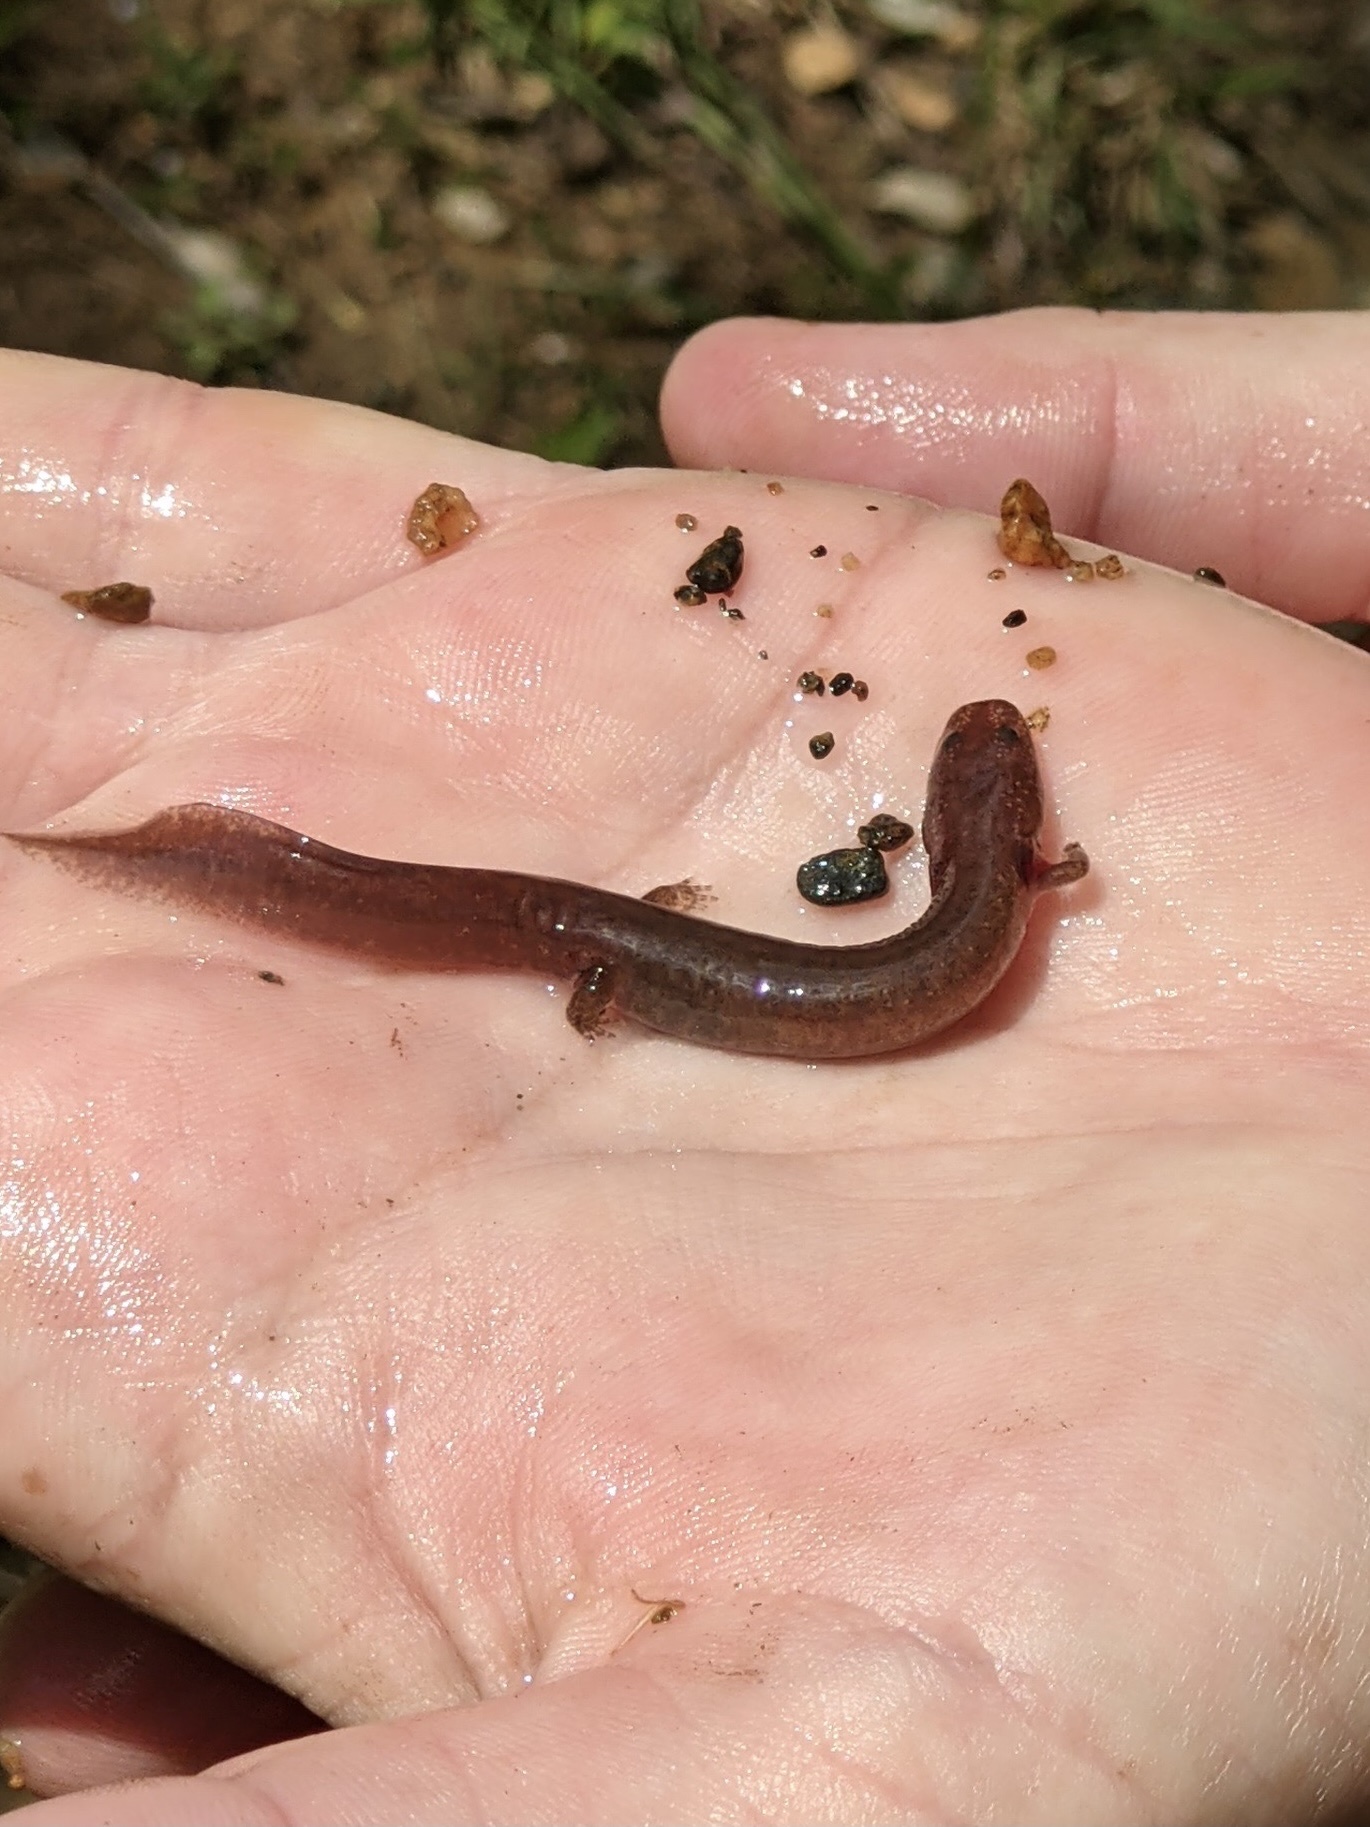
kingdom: Animalia
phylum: Chordata
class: Amphibia
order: Caudata
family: Plethodontidae
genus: Gyrinophilus
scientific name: Gyrinophilus porphyriticus
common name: Spring salamander
